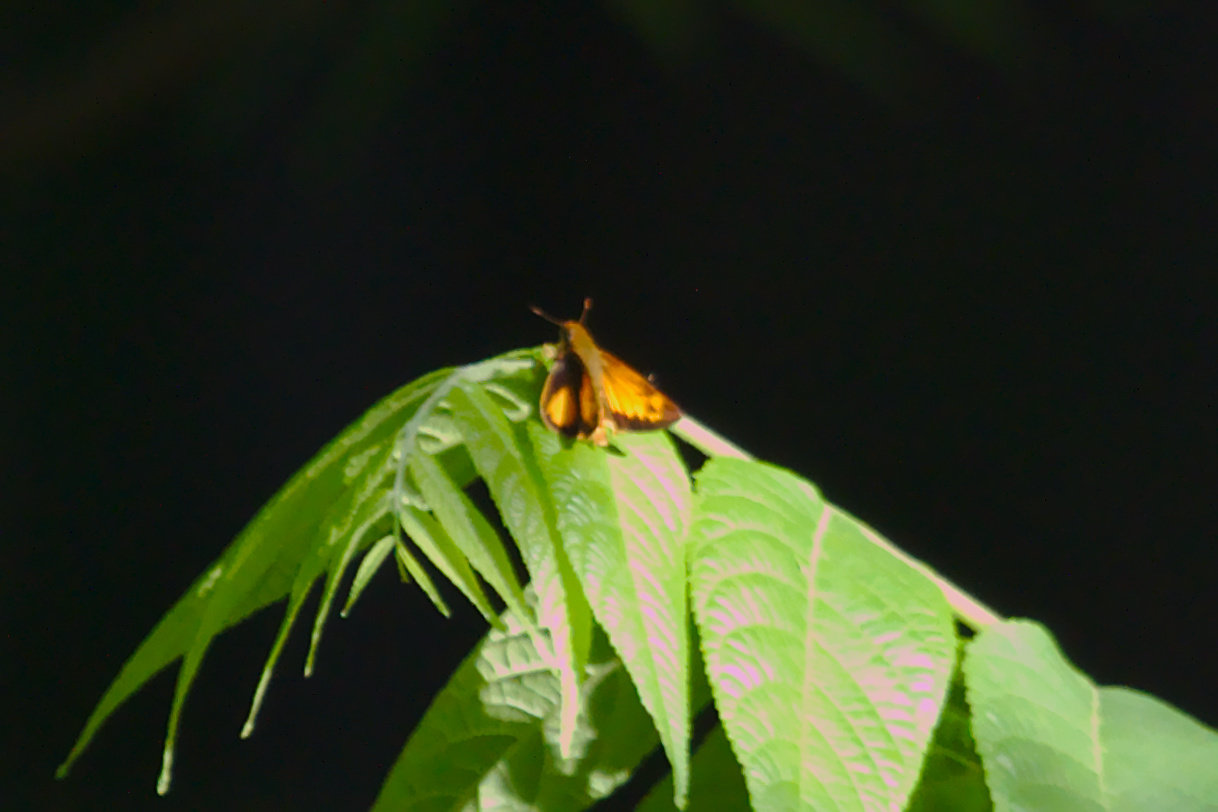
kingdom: Animalia
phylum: Arthropoda
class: Insecta
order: Lepidoptera
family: Hesperiidae
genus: Lon
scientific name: Lon zabulon
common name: Zabulon skipper
